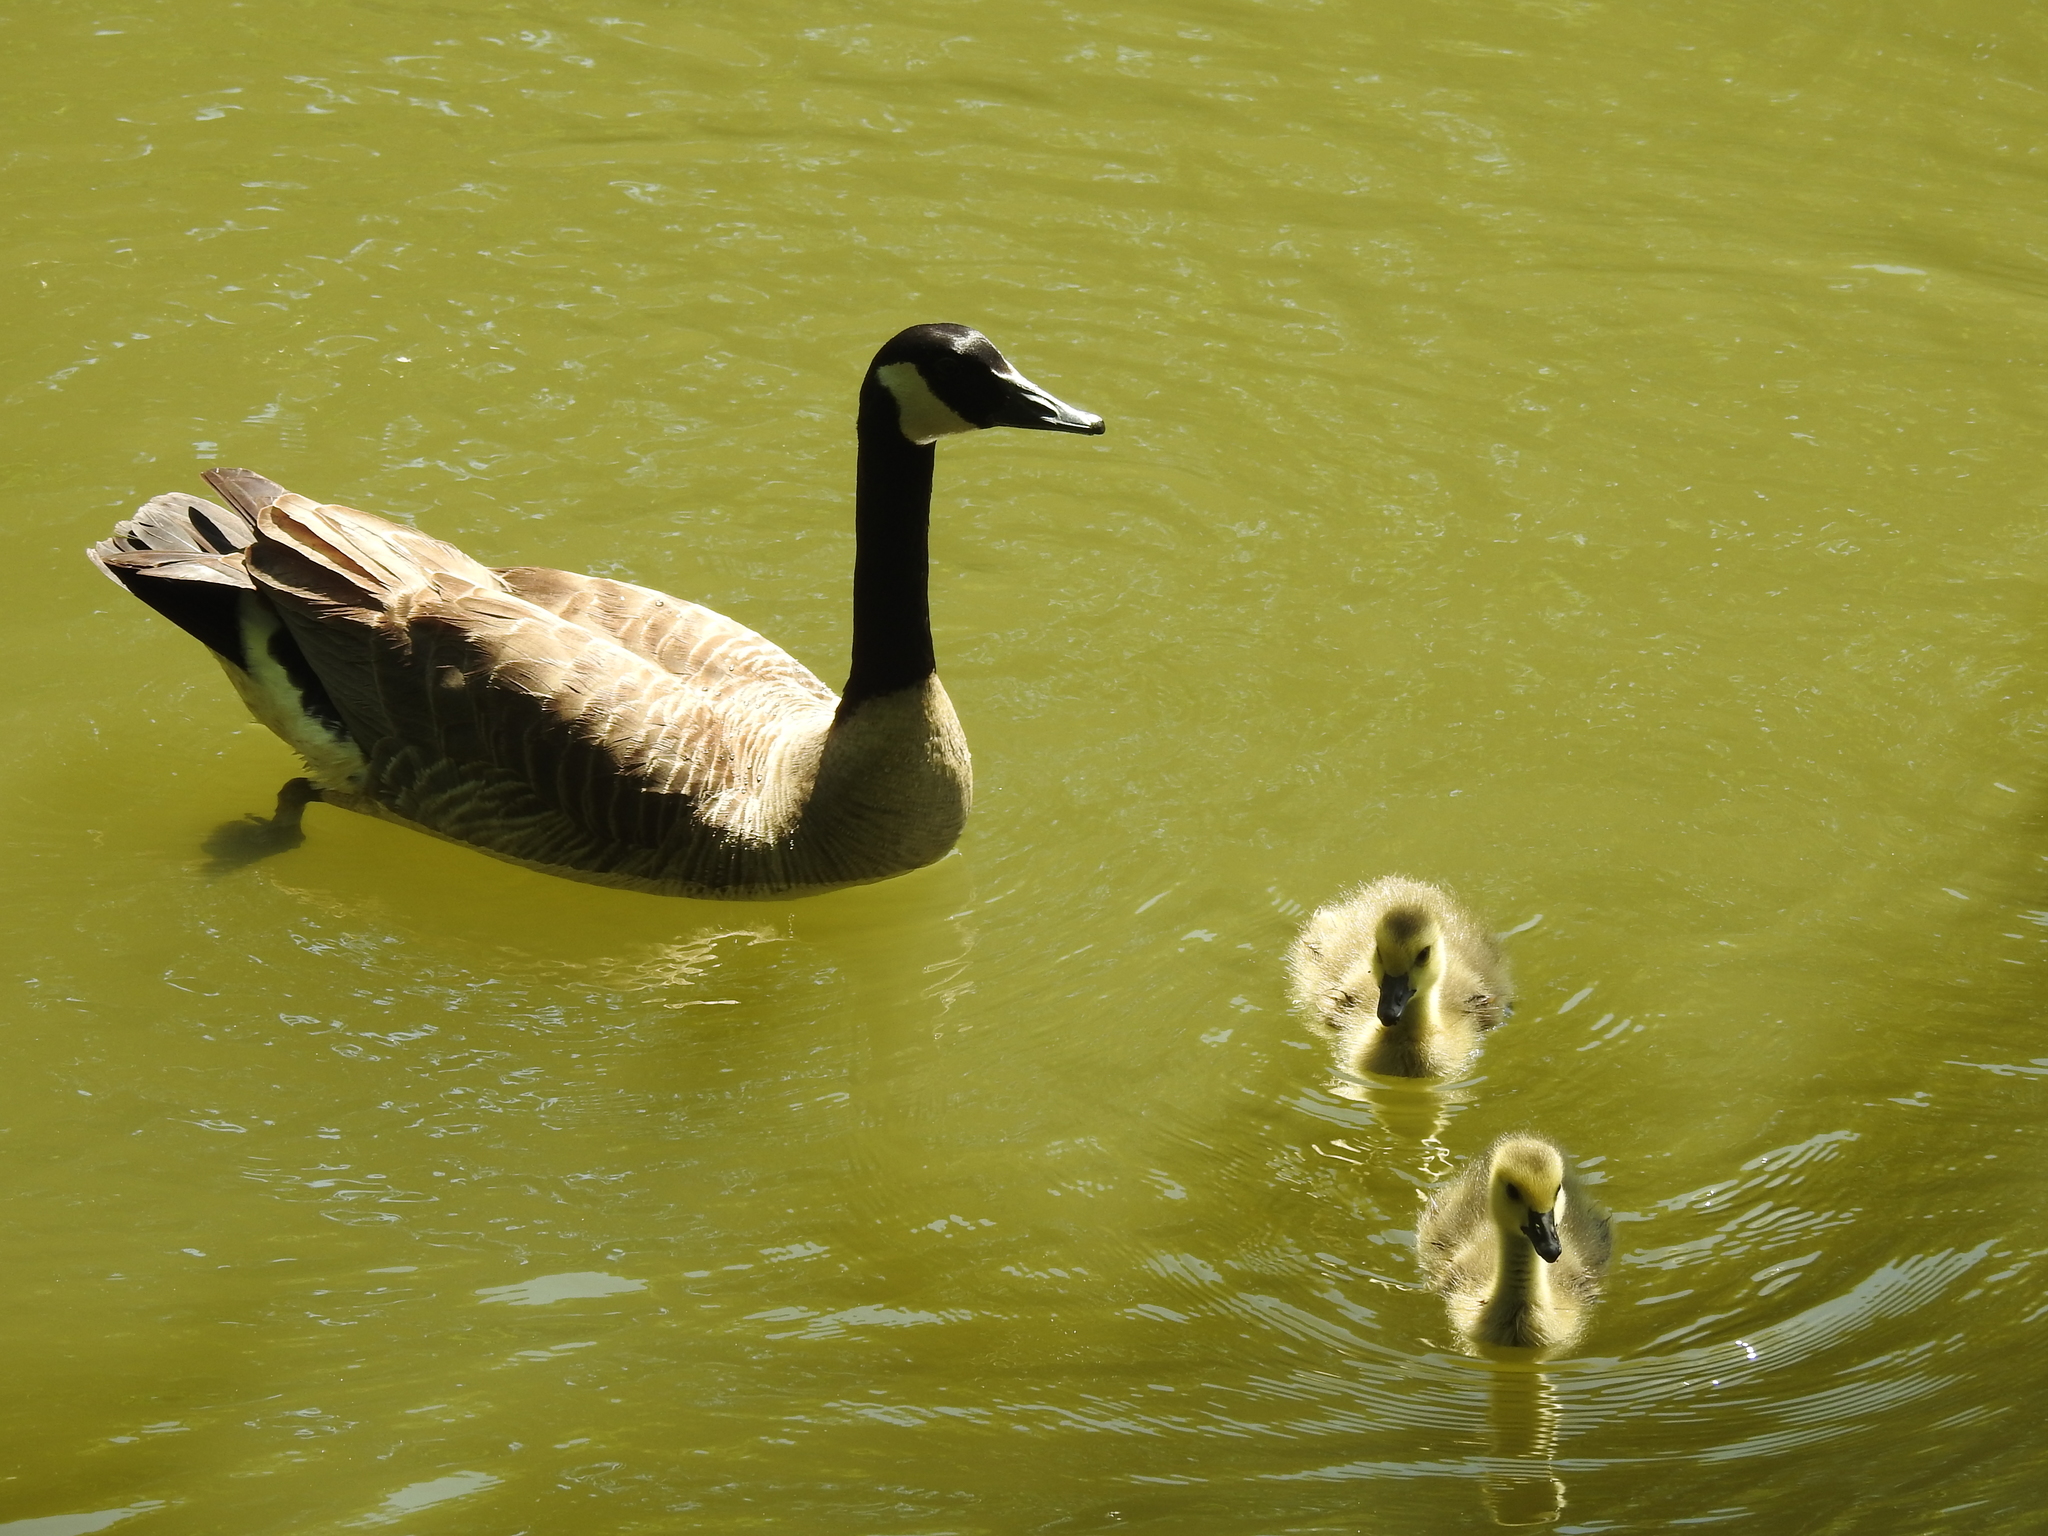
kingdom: Animalia
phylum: Chordata
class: Aves
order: Anseriformes
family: Anatidae
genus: Branta
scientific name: Branta canadensis
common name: Canada goose
